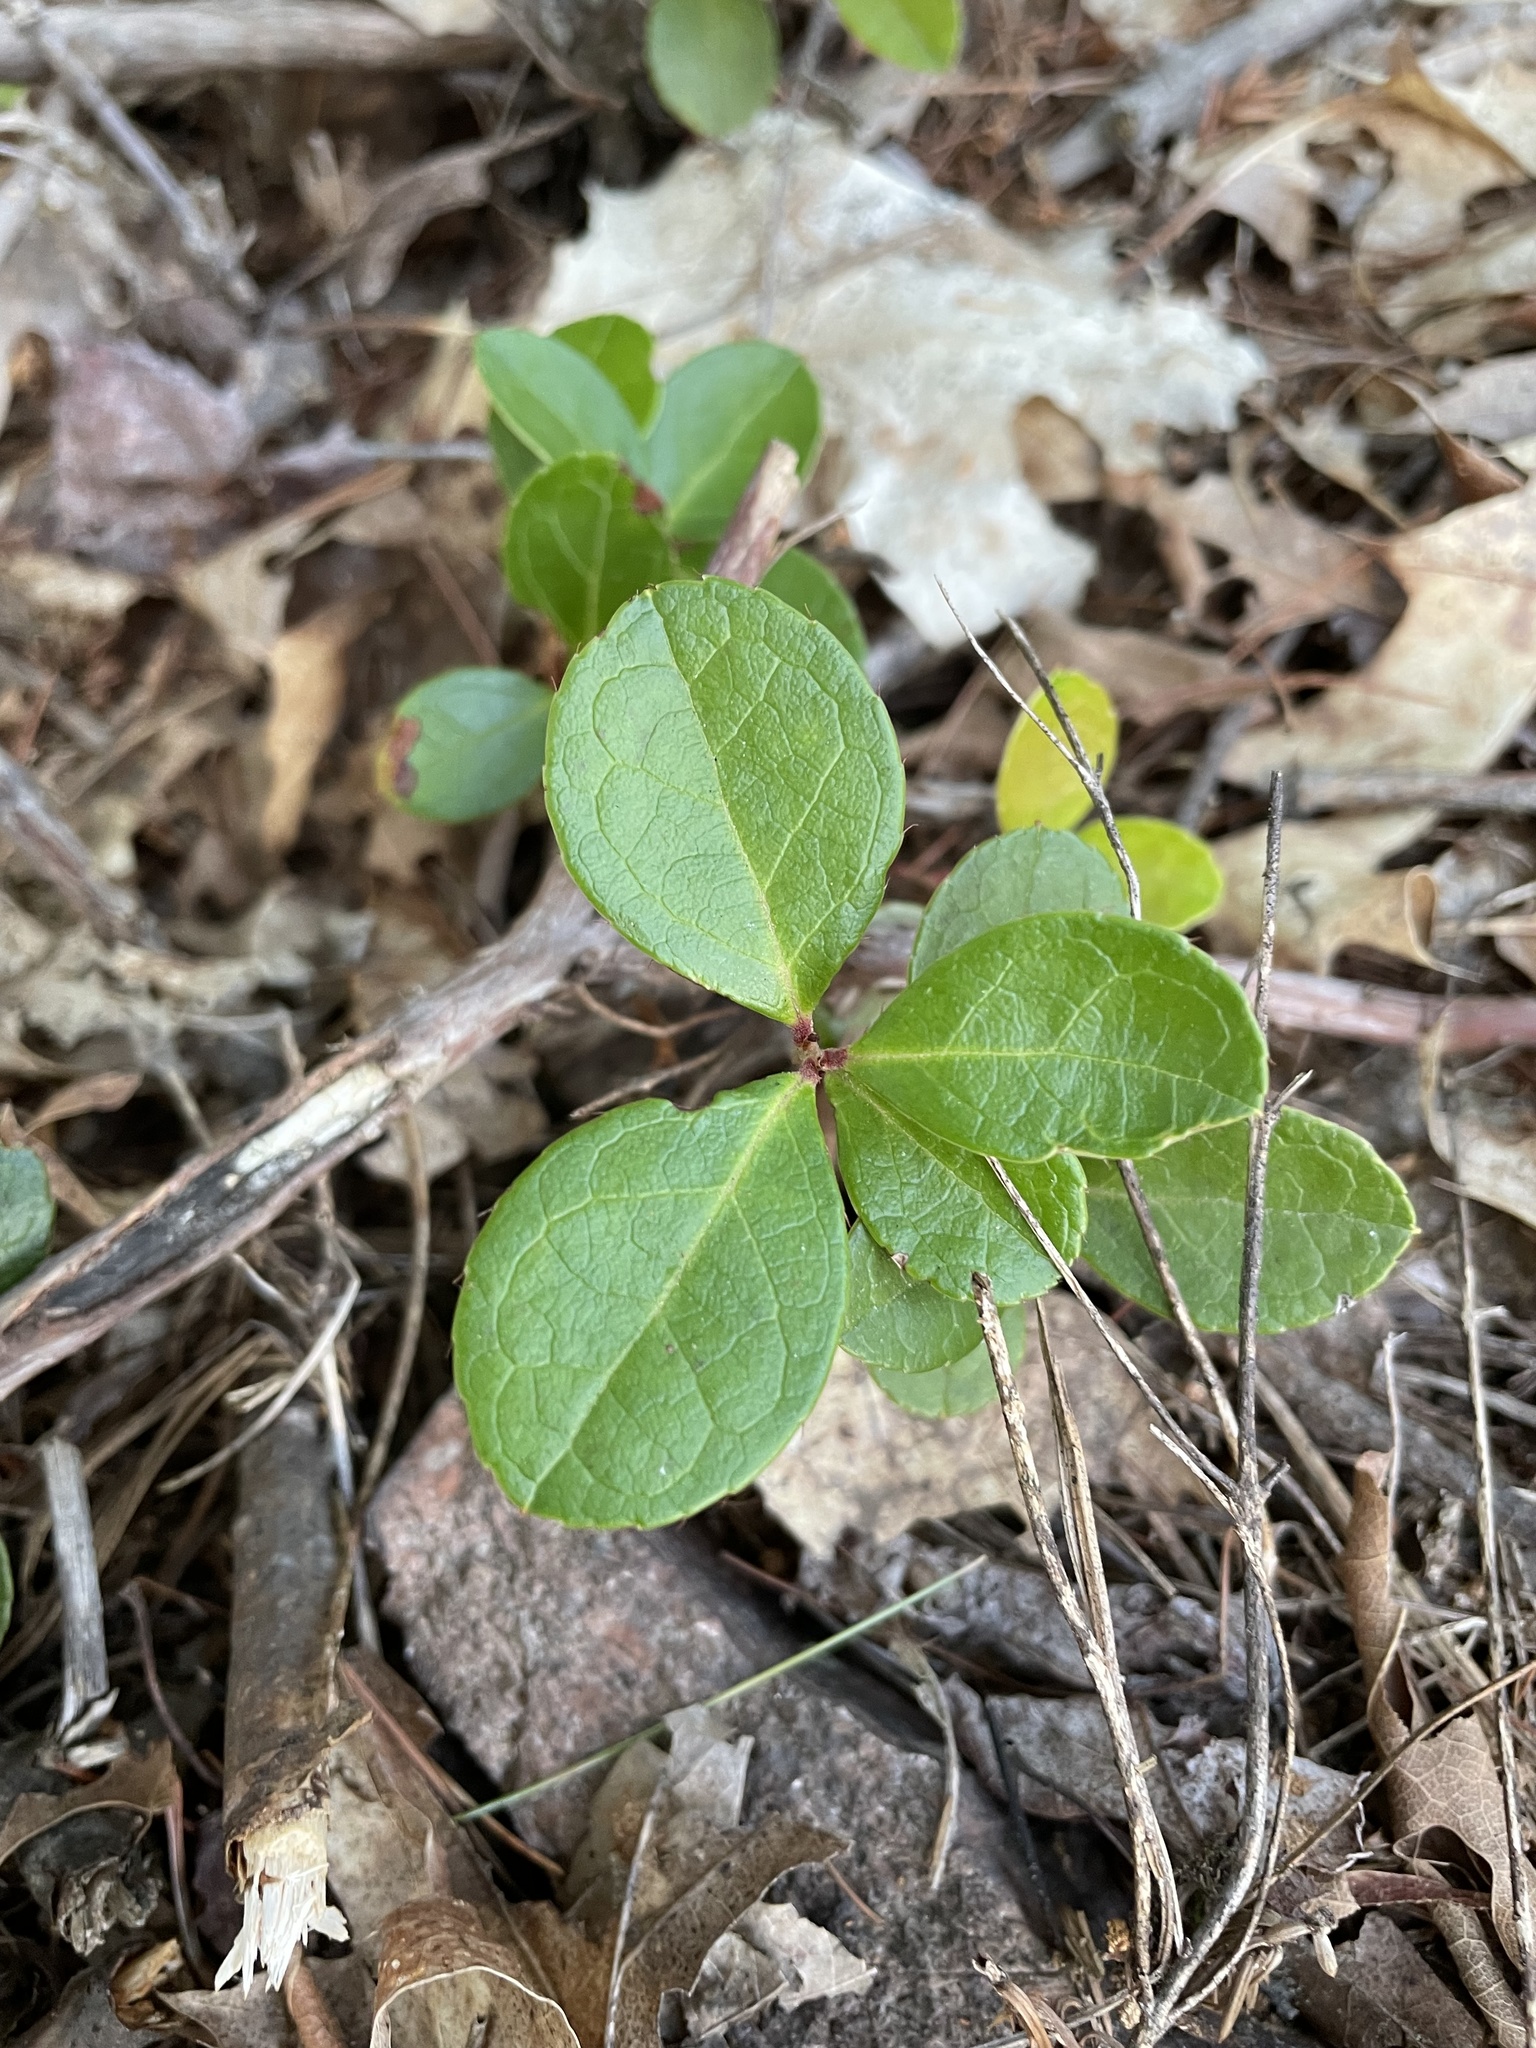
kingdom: Plantae
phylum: Tracheophyta
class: Magnoliopsida
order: Ericales
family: Ericaceae
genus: Gaultheria
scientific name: Gaultheria procumbens
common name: Checkerberry
